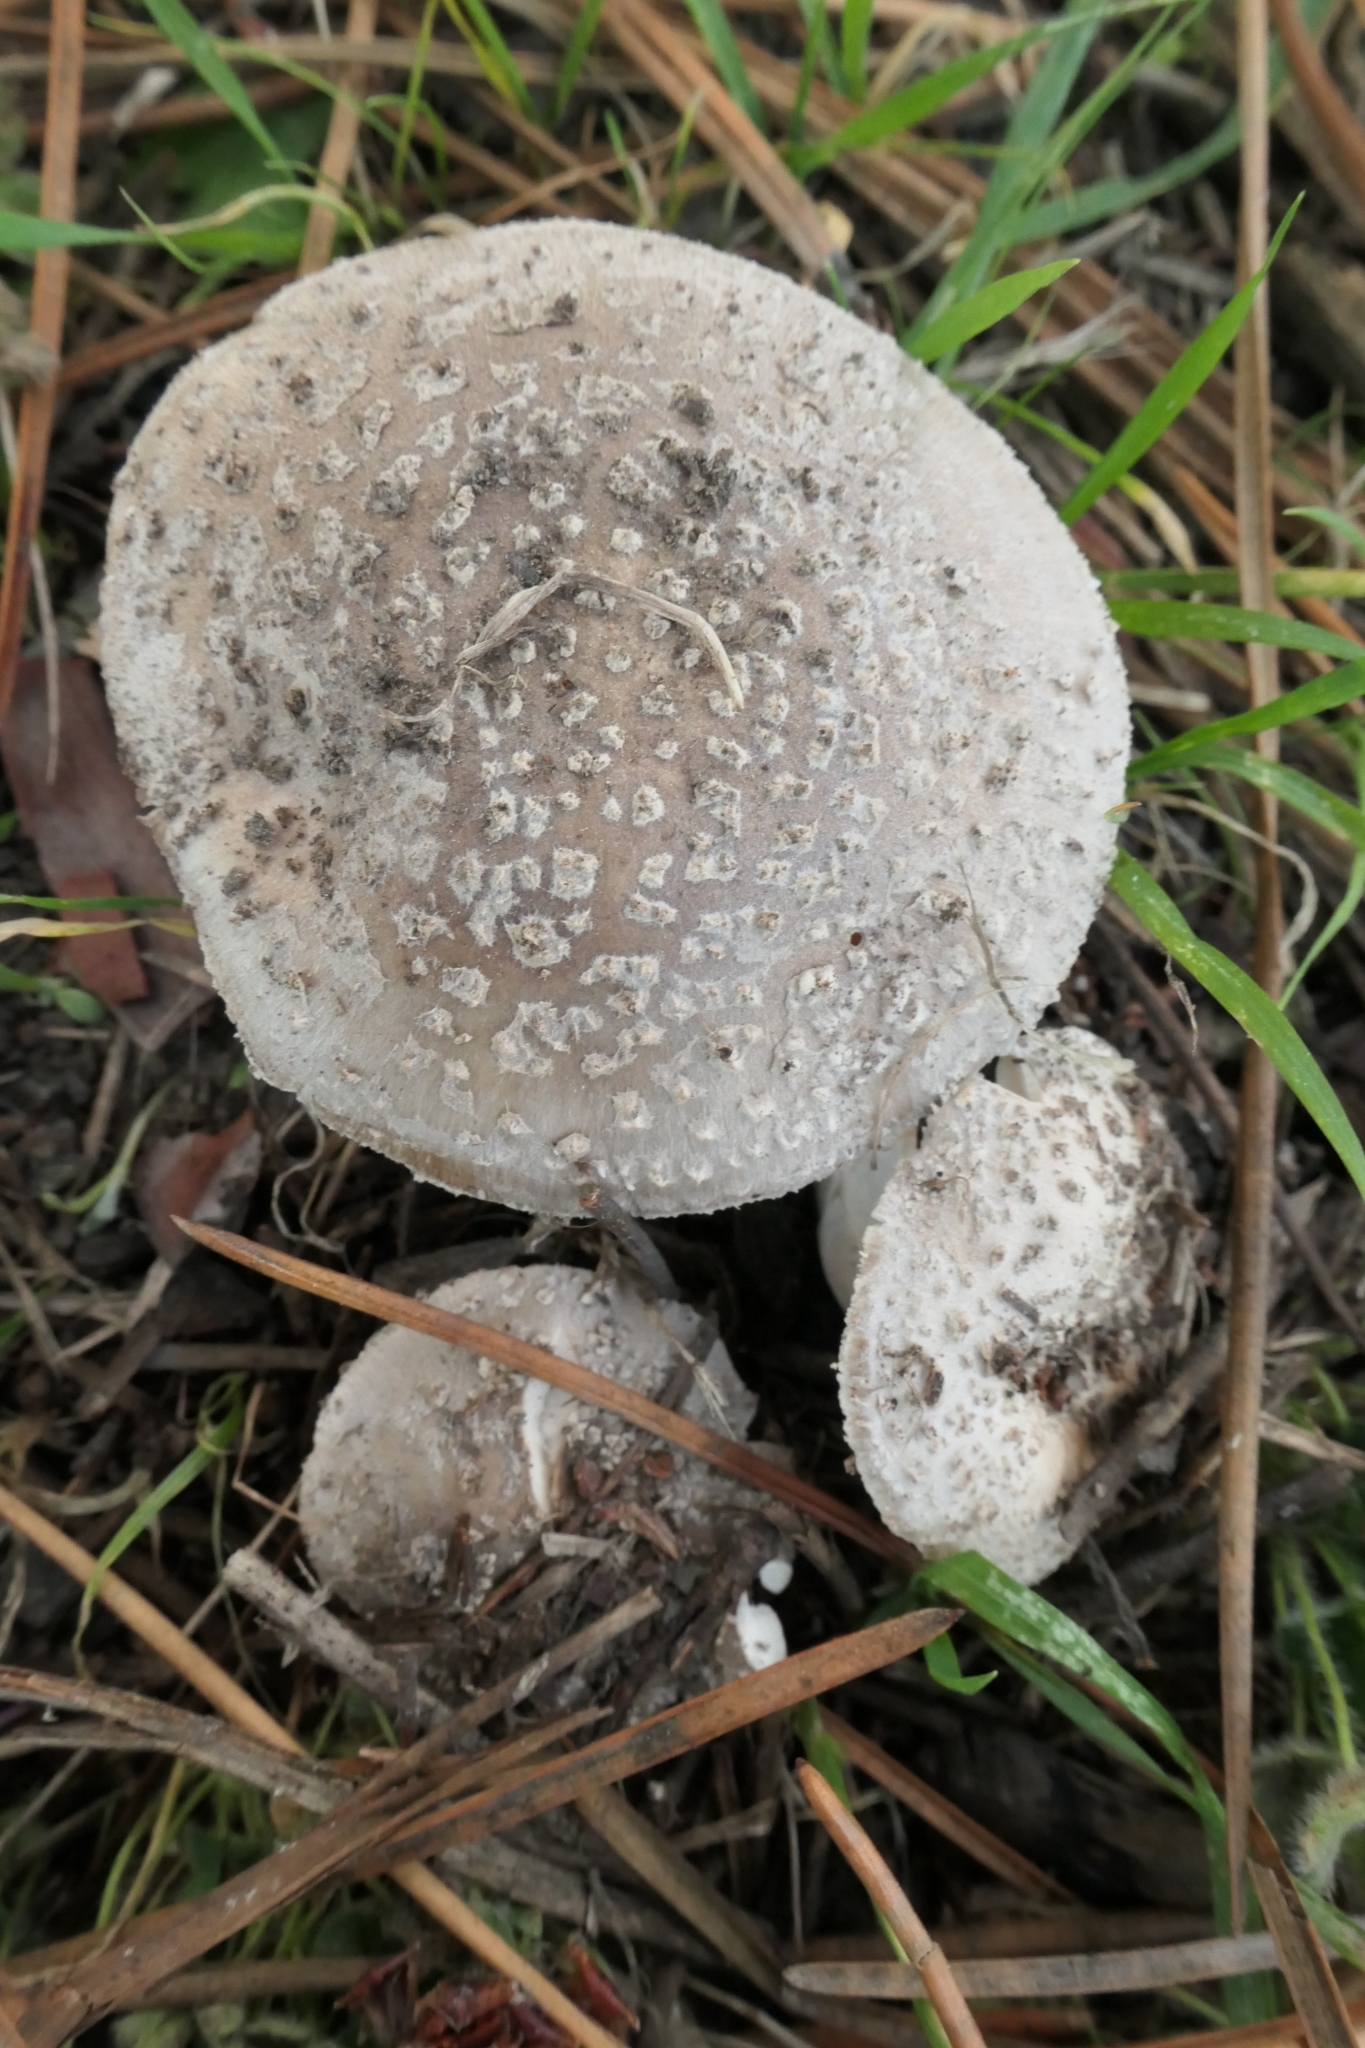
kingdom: Fungi
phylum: Basidiomycota
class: Agaricomycetes
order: Agaricales
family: Amanitaceae
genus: Amanita
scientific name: Amanita excelsa
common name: European false blusher
